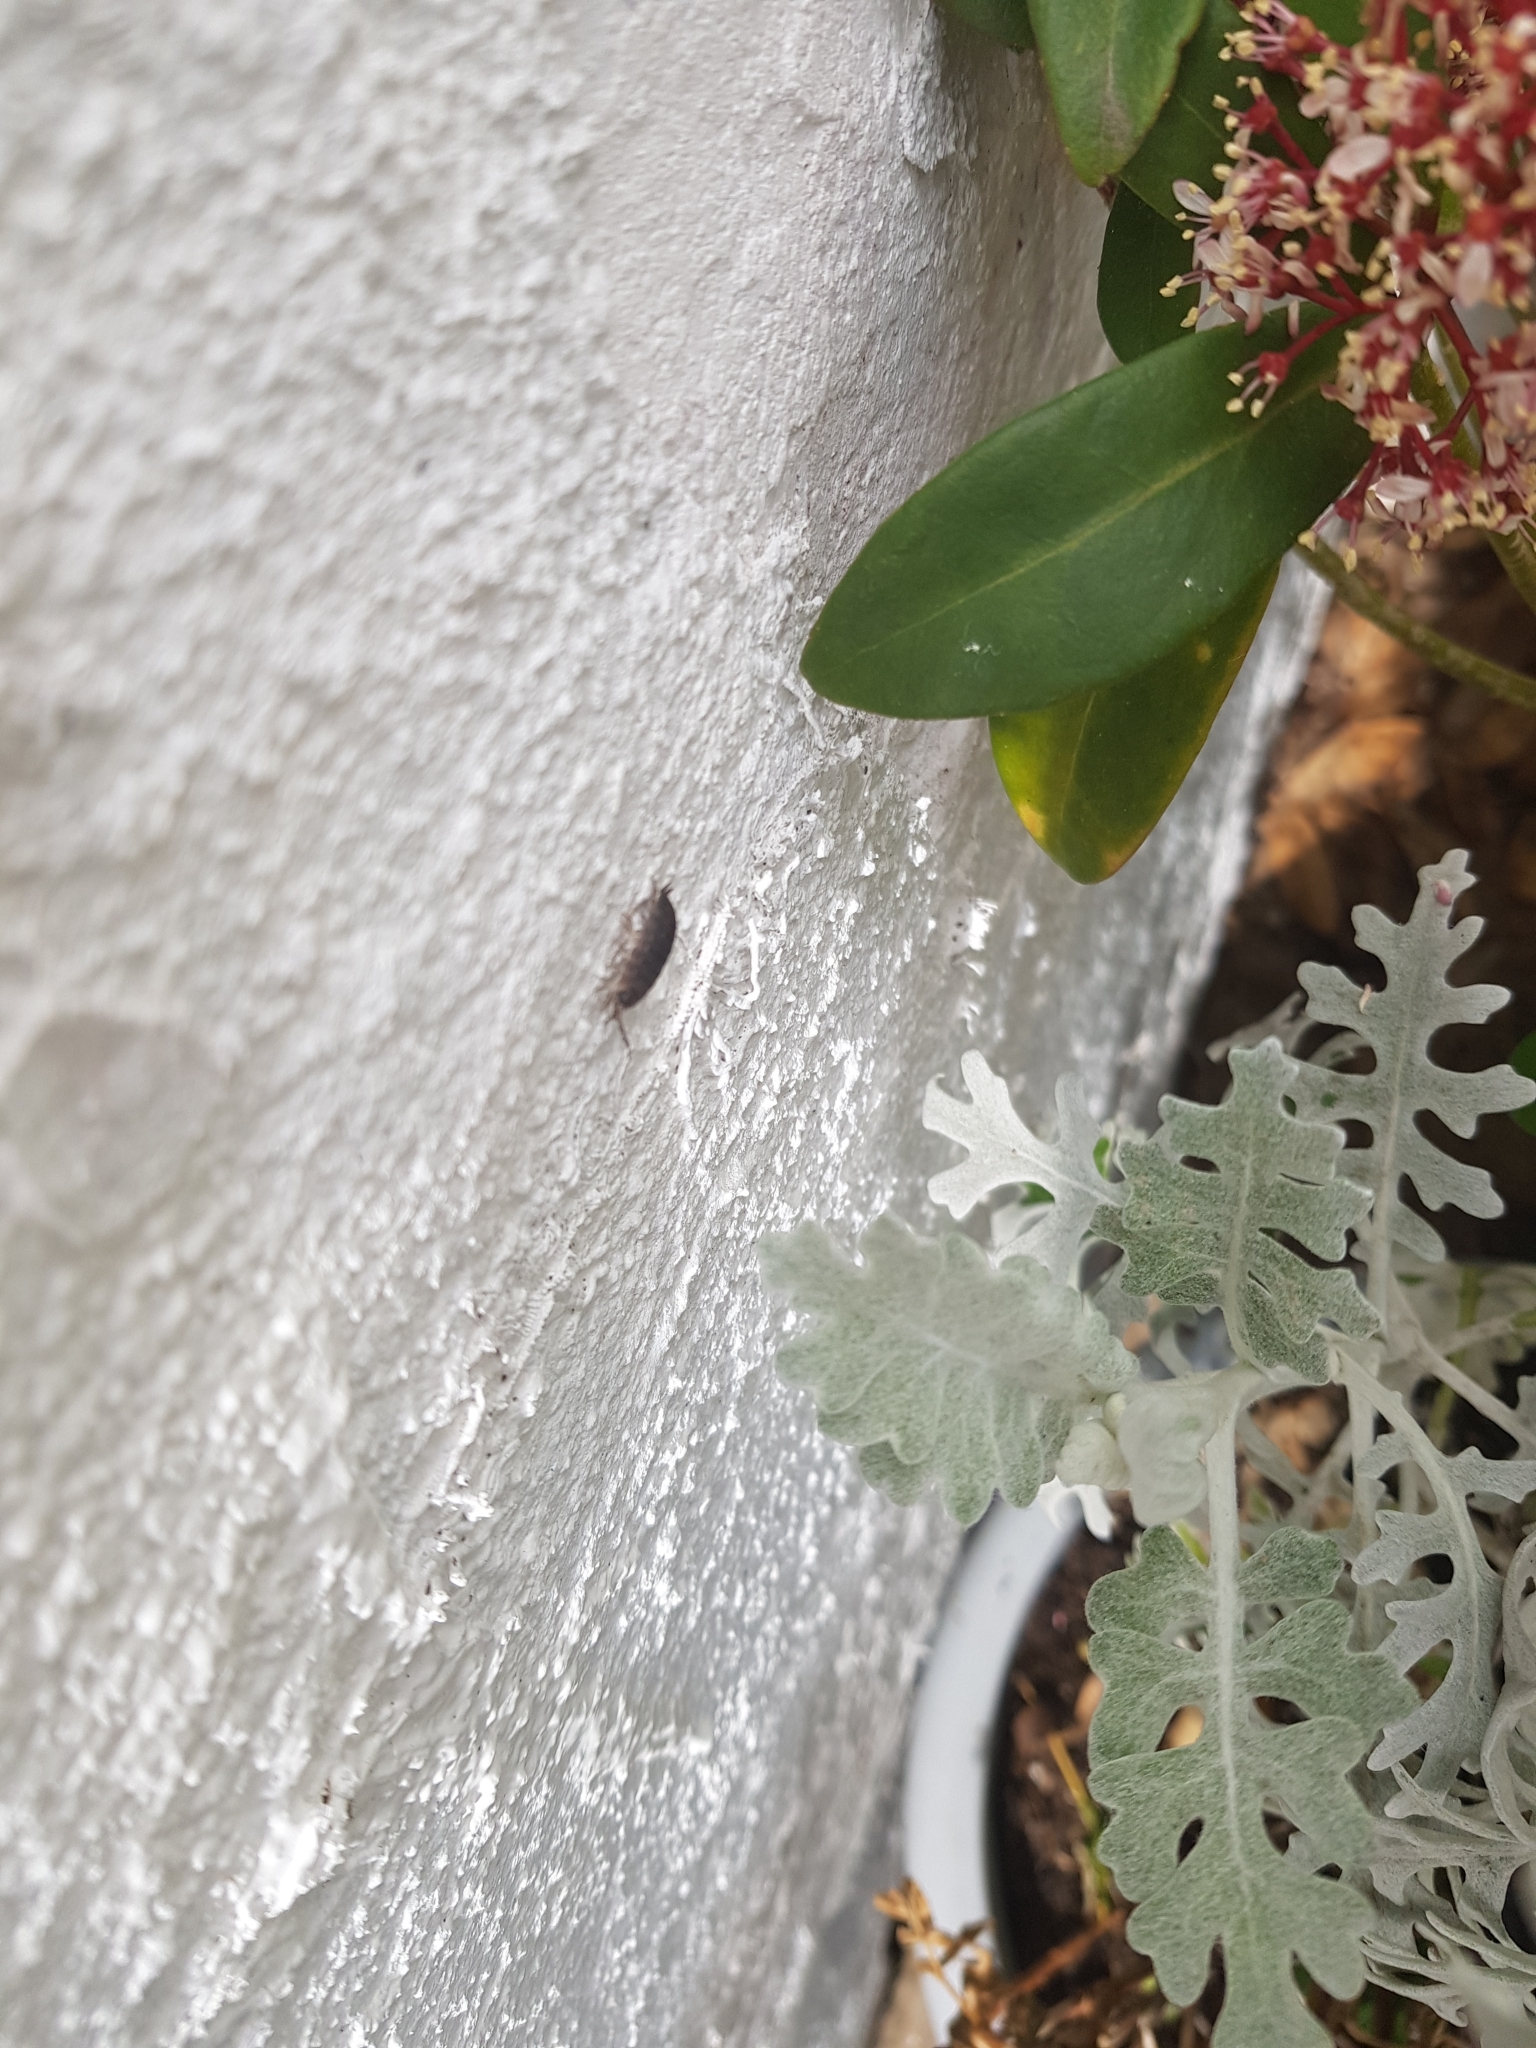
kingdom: Animalia
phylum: Arthropoda
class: Malacostraca
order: Isopoda
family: Porcellionidae
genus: Porcellio
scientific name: Porcellio scaber
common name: Common rough woodlouse
